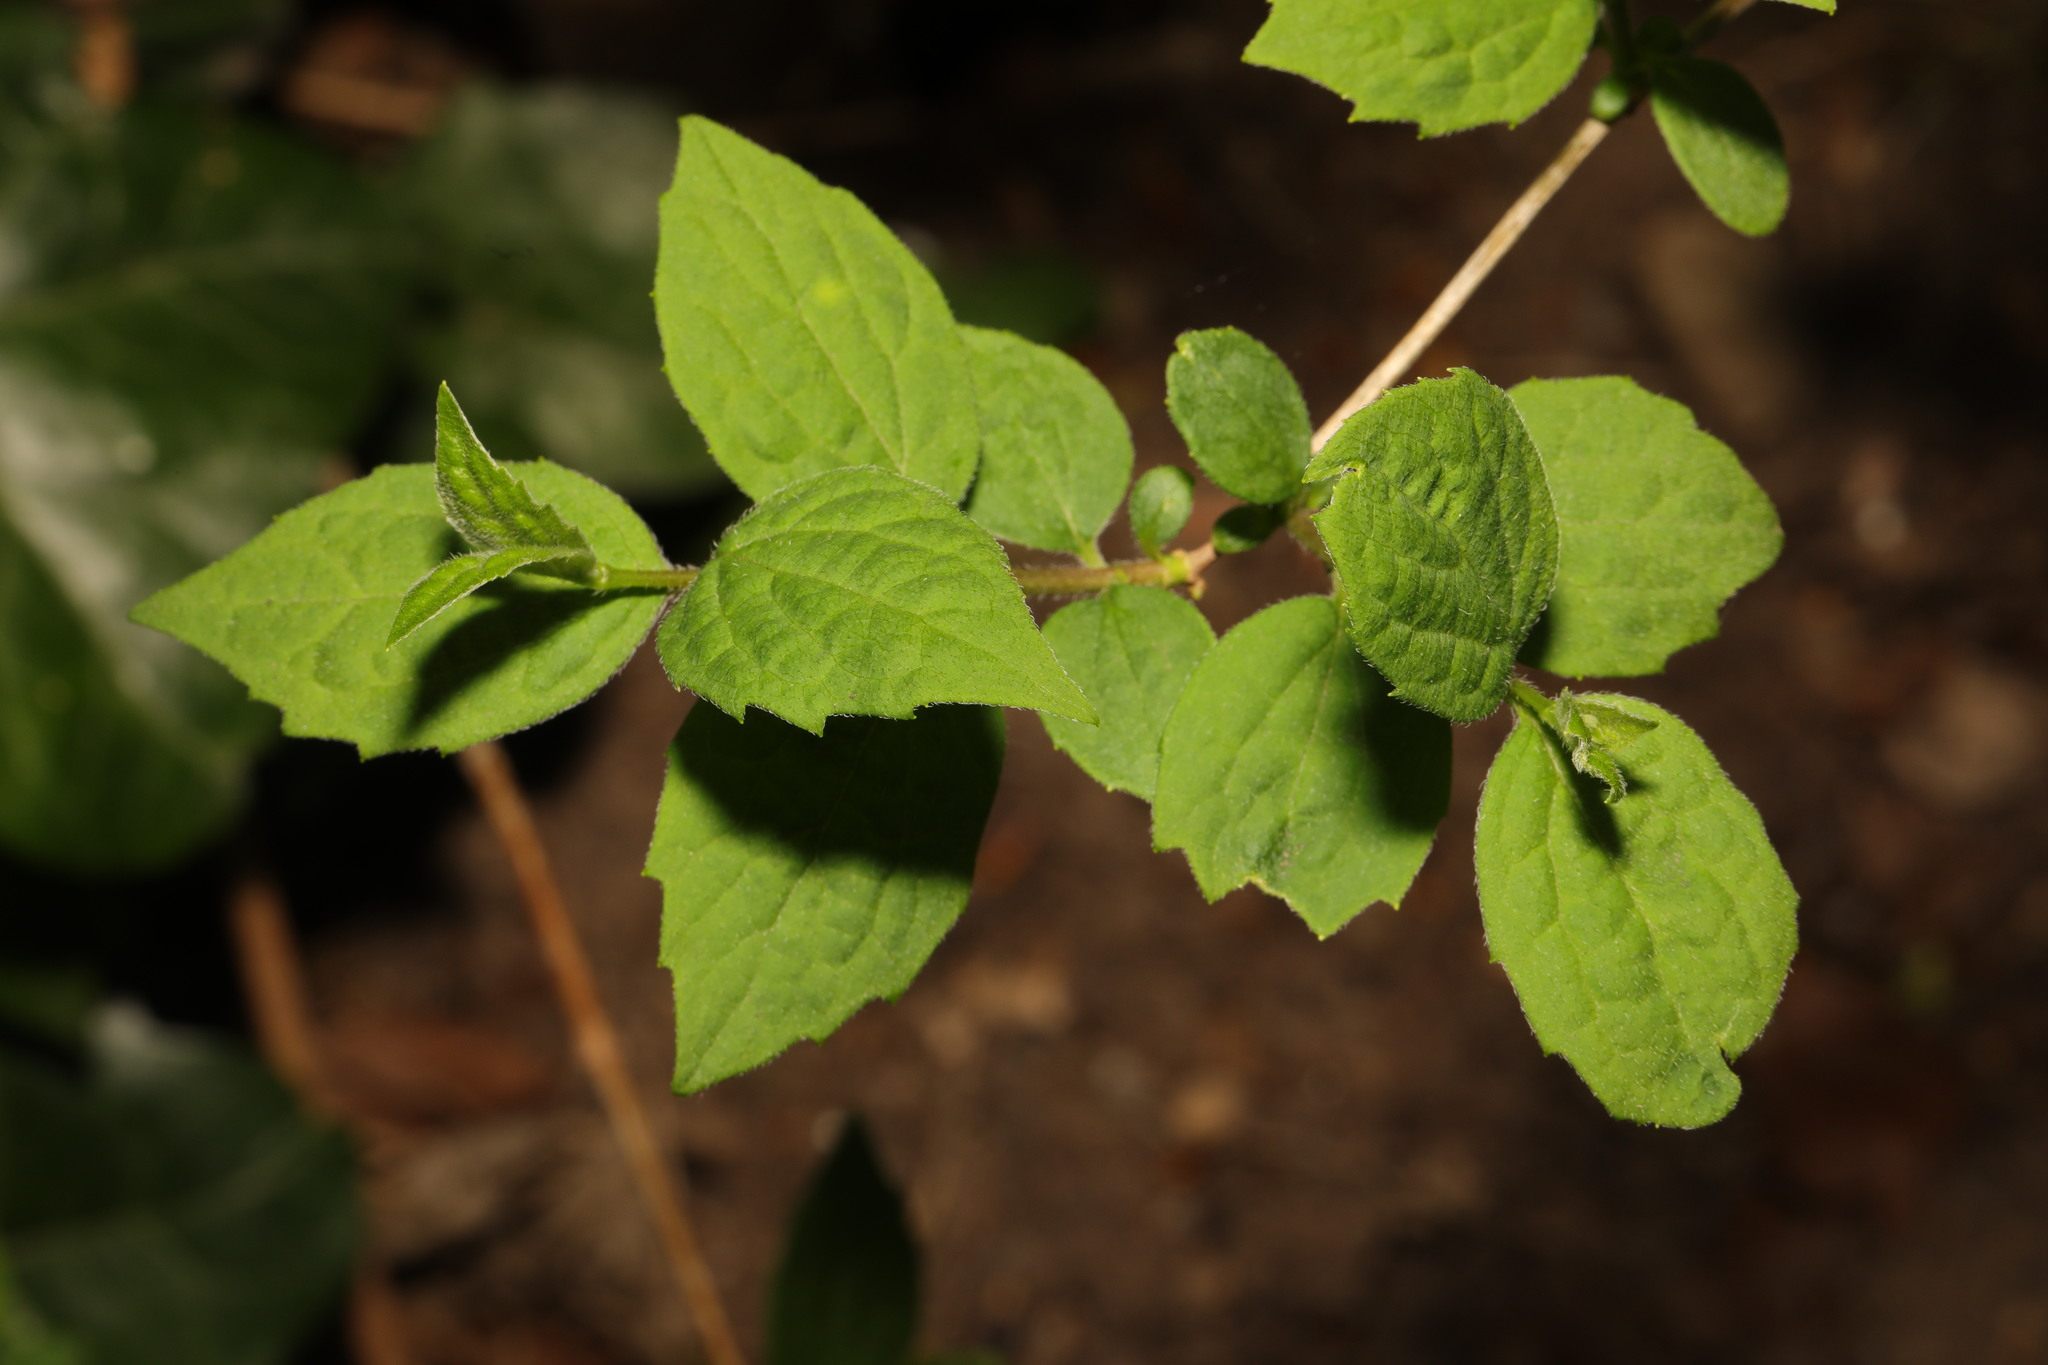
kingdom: Plantae
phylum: Tracheophyta
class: Magnoliopsida
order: Cornales
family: Hydrangeaceae
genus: Philadelphus
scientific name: Philadelphus coronarius
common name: Mock orange
